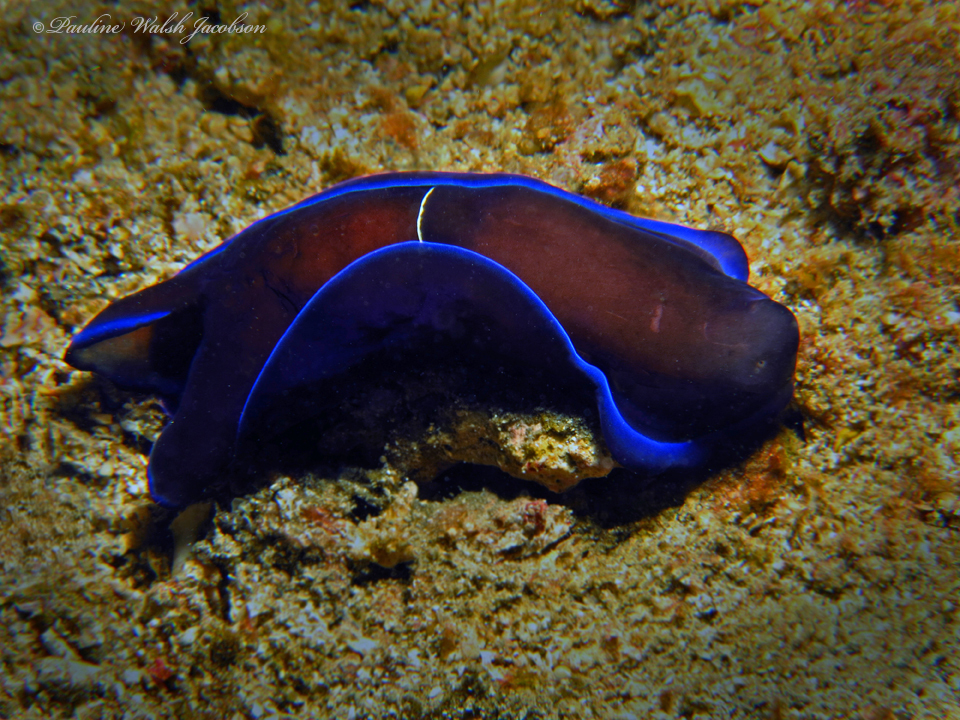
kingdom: Animalia
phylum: Mollusca
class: Gastropoda
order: Cephalaspidea
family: Aglajidae
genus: Tubulophilinopsis
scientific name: Tubulophilinopsis gardineri
